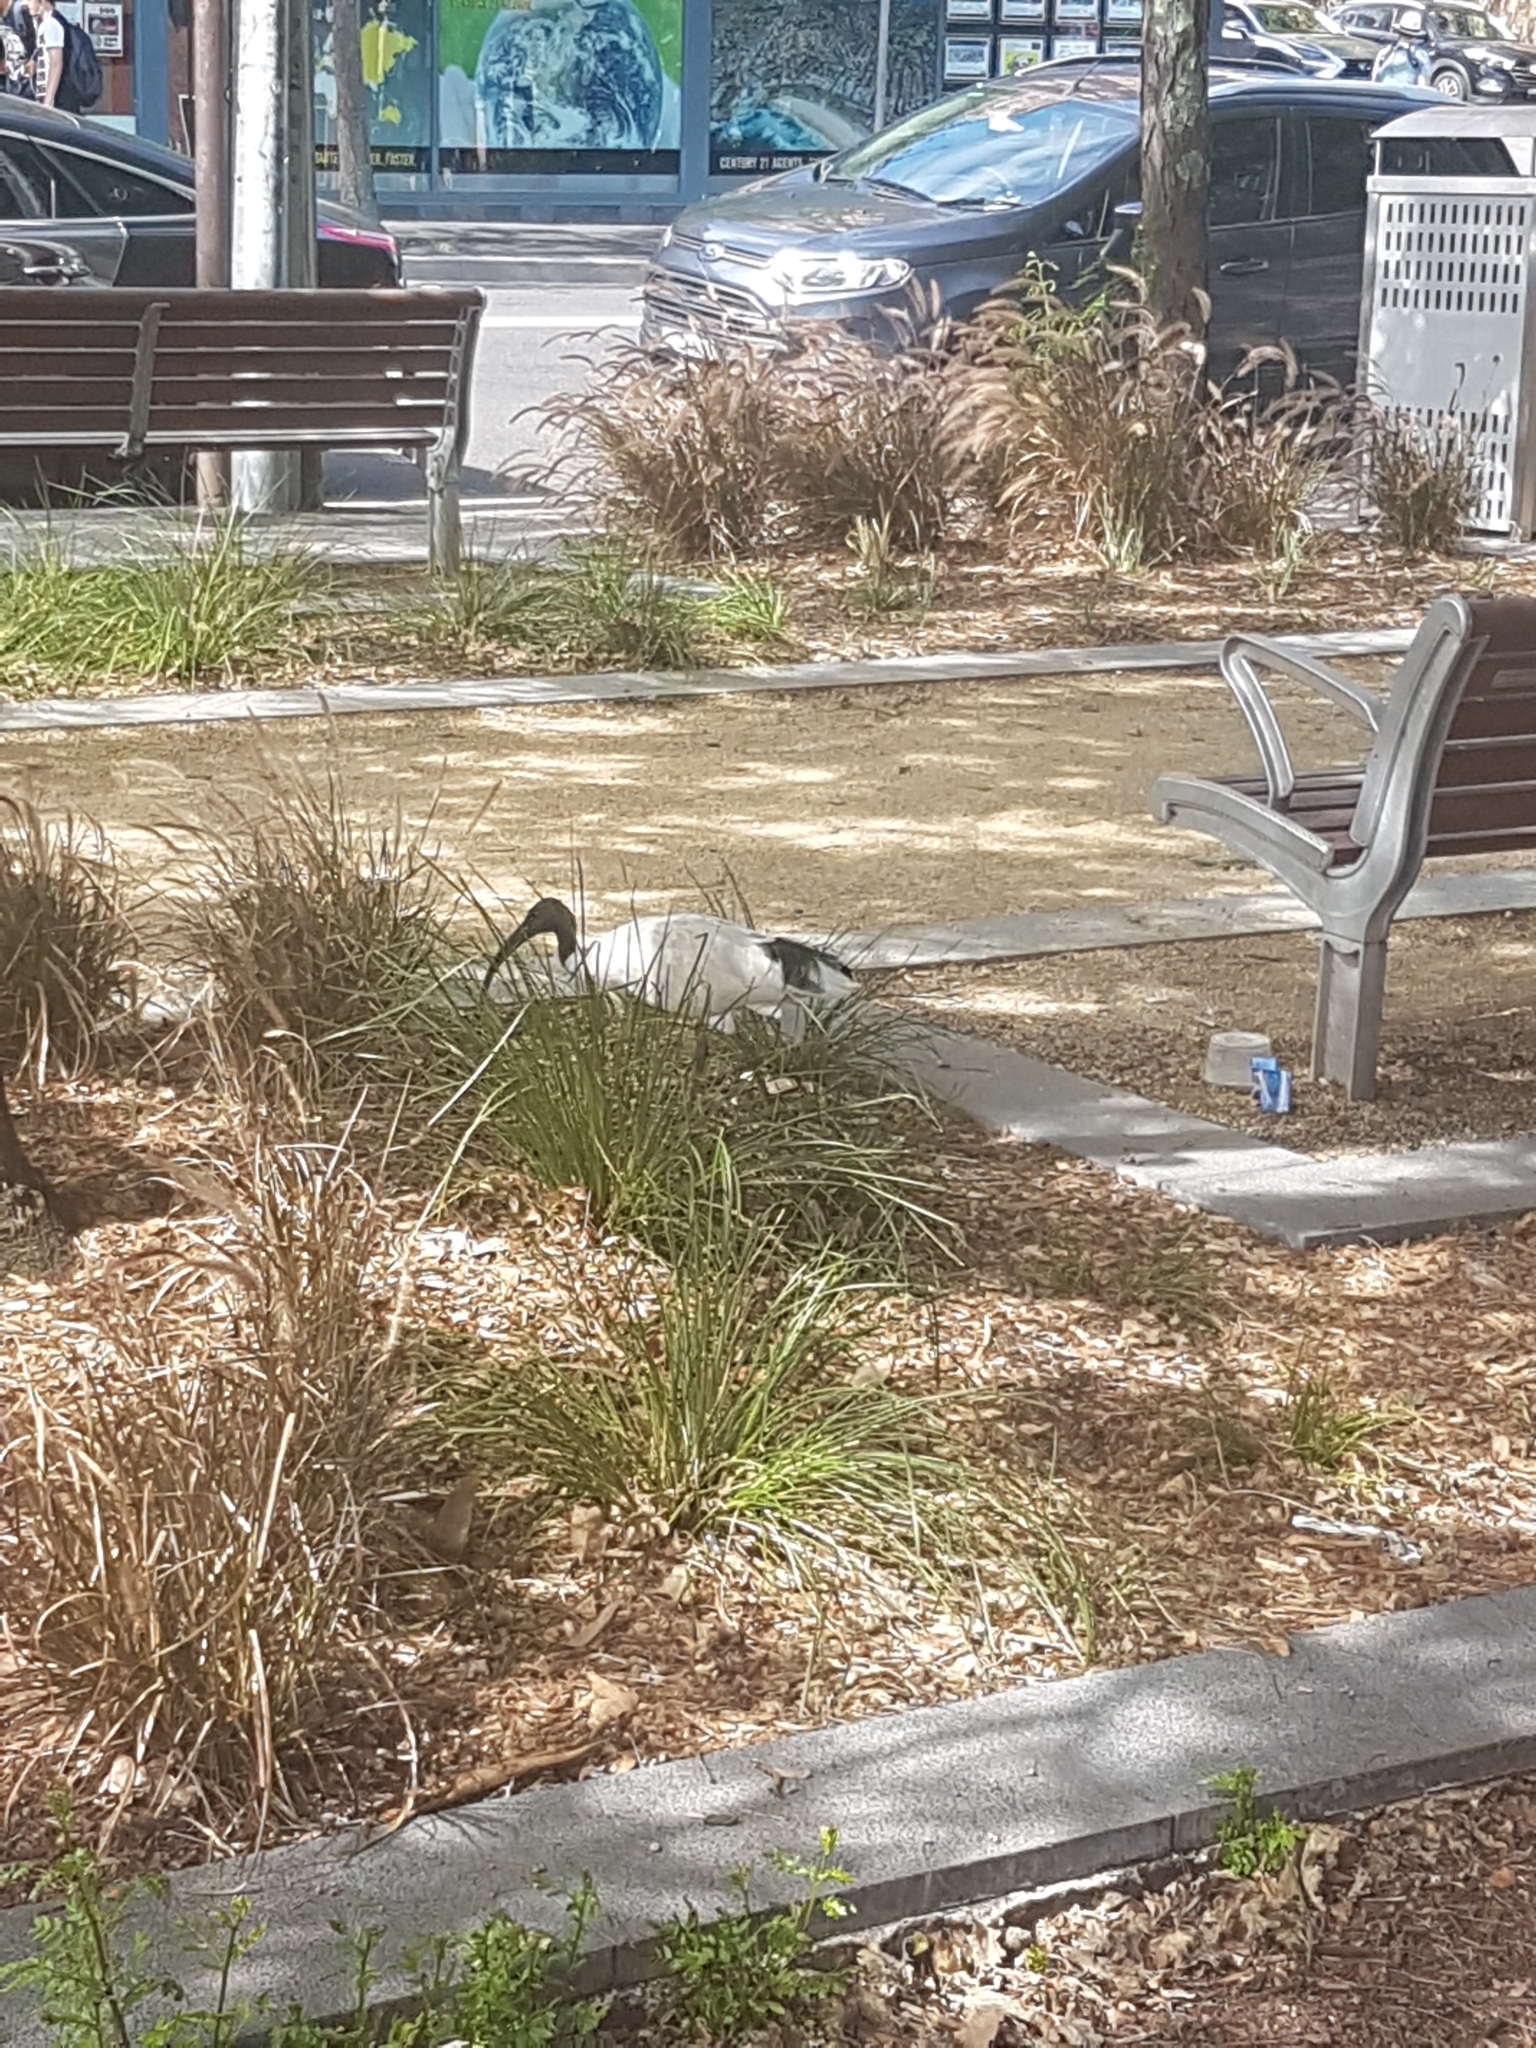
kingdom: Animalia
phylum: Chordata
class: Aves
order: Pelecaniformes
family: Threskiornithidae
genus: Threskiornis
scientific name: Threskiornis molucca
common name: Australian white ibis
